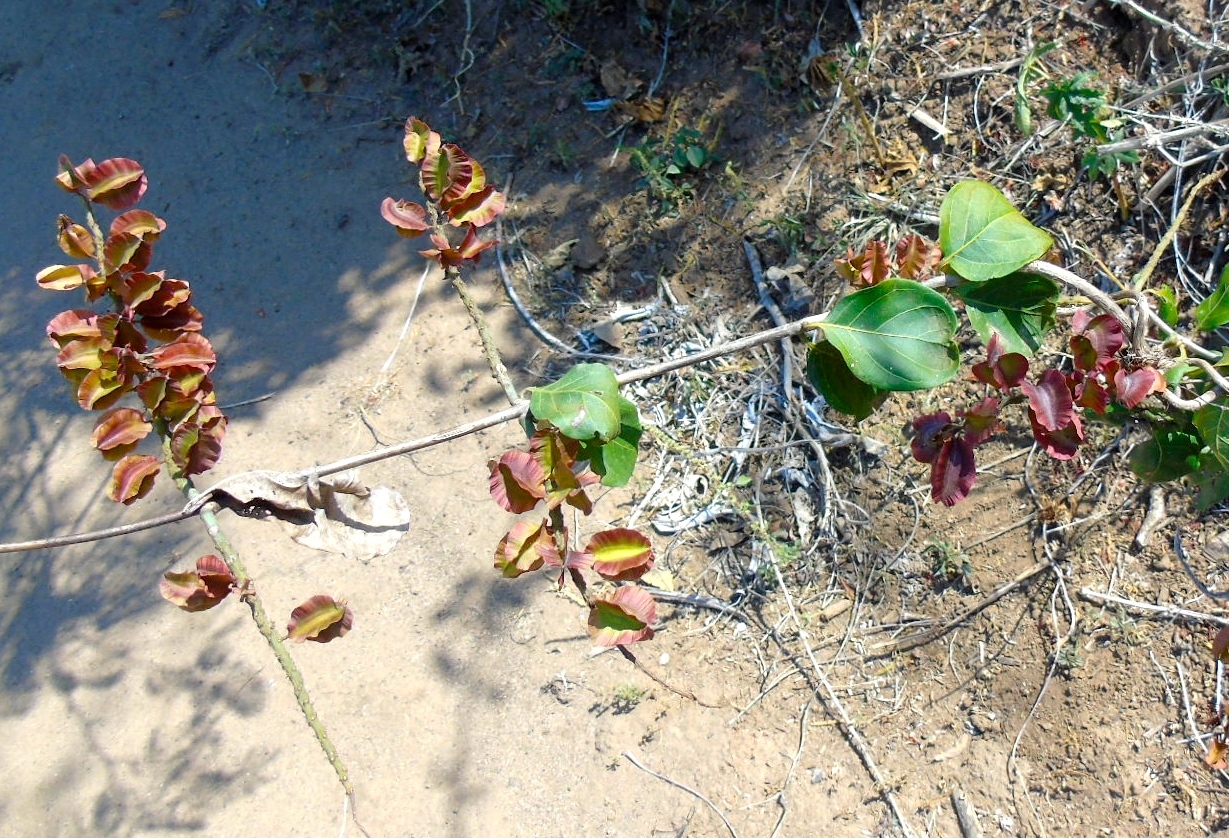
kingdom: Plantae
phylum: Tracheophyta
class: Magnoliopsida
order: Myrtales
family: Combretaceae
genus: Combretum
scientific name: Combretum farinosum
